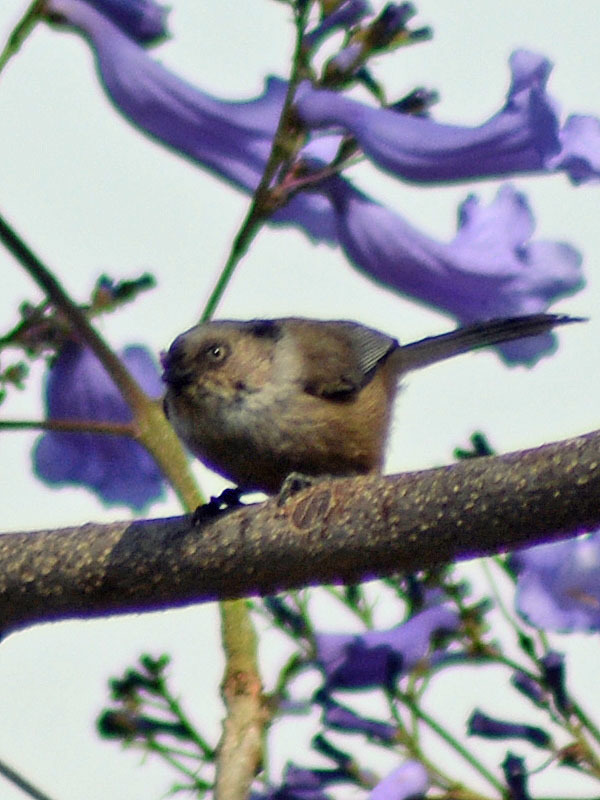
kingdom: Animalia
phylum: Chordata
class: Aves
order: Passeriformes
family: Aegithalidae
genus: Psaltriparus
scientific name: Psaltriparus minimus
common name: American bushtit
